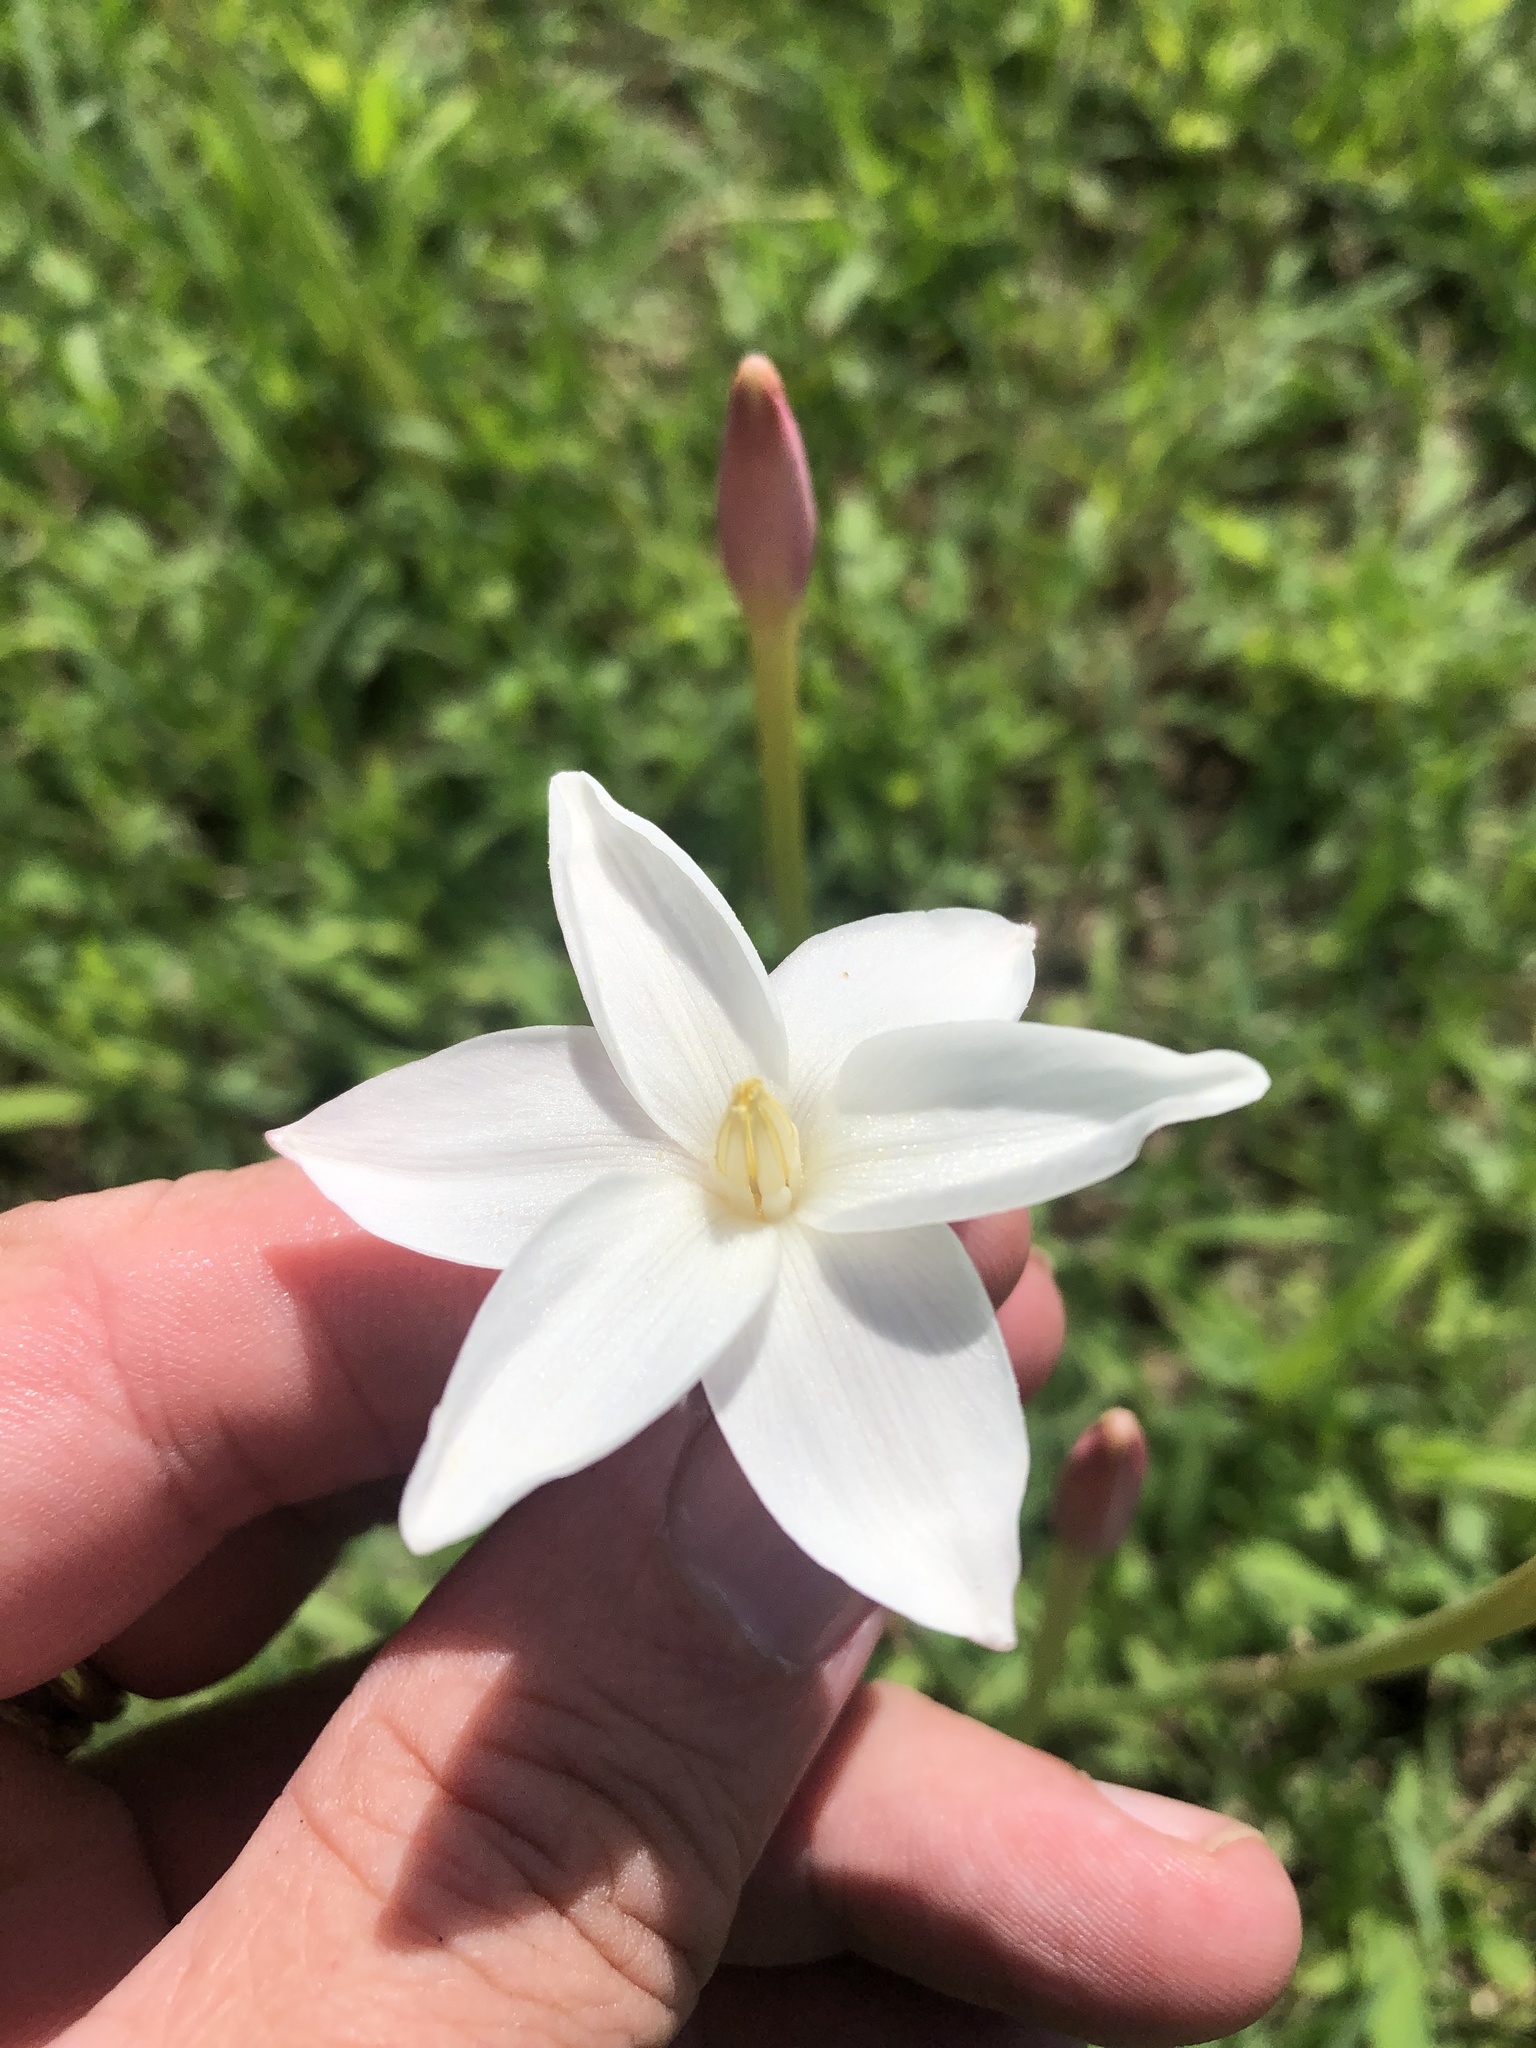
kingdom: Plantae
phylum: Tracheophyta
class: Liliopsida
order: Asparagales
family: Amaryllidaceae
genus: Zephyranthes
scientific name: Zephyranthes chlorosolen
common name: Evening rain-lily
